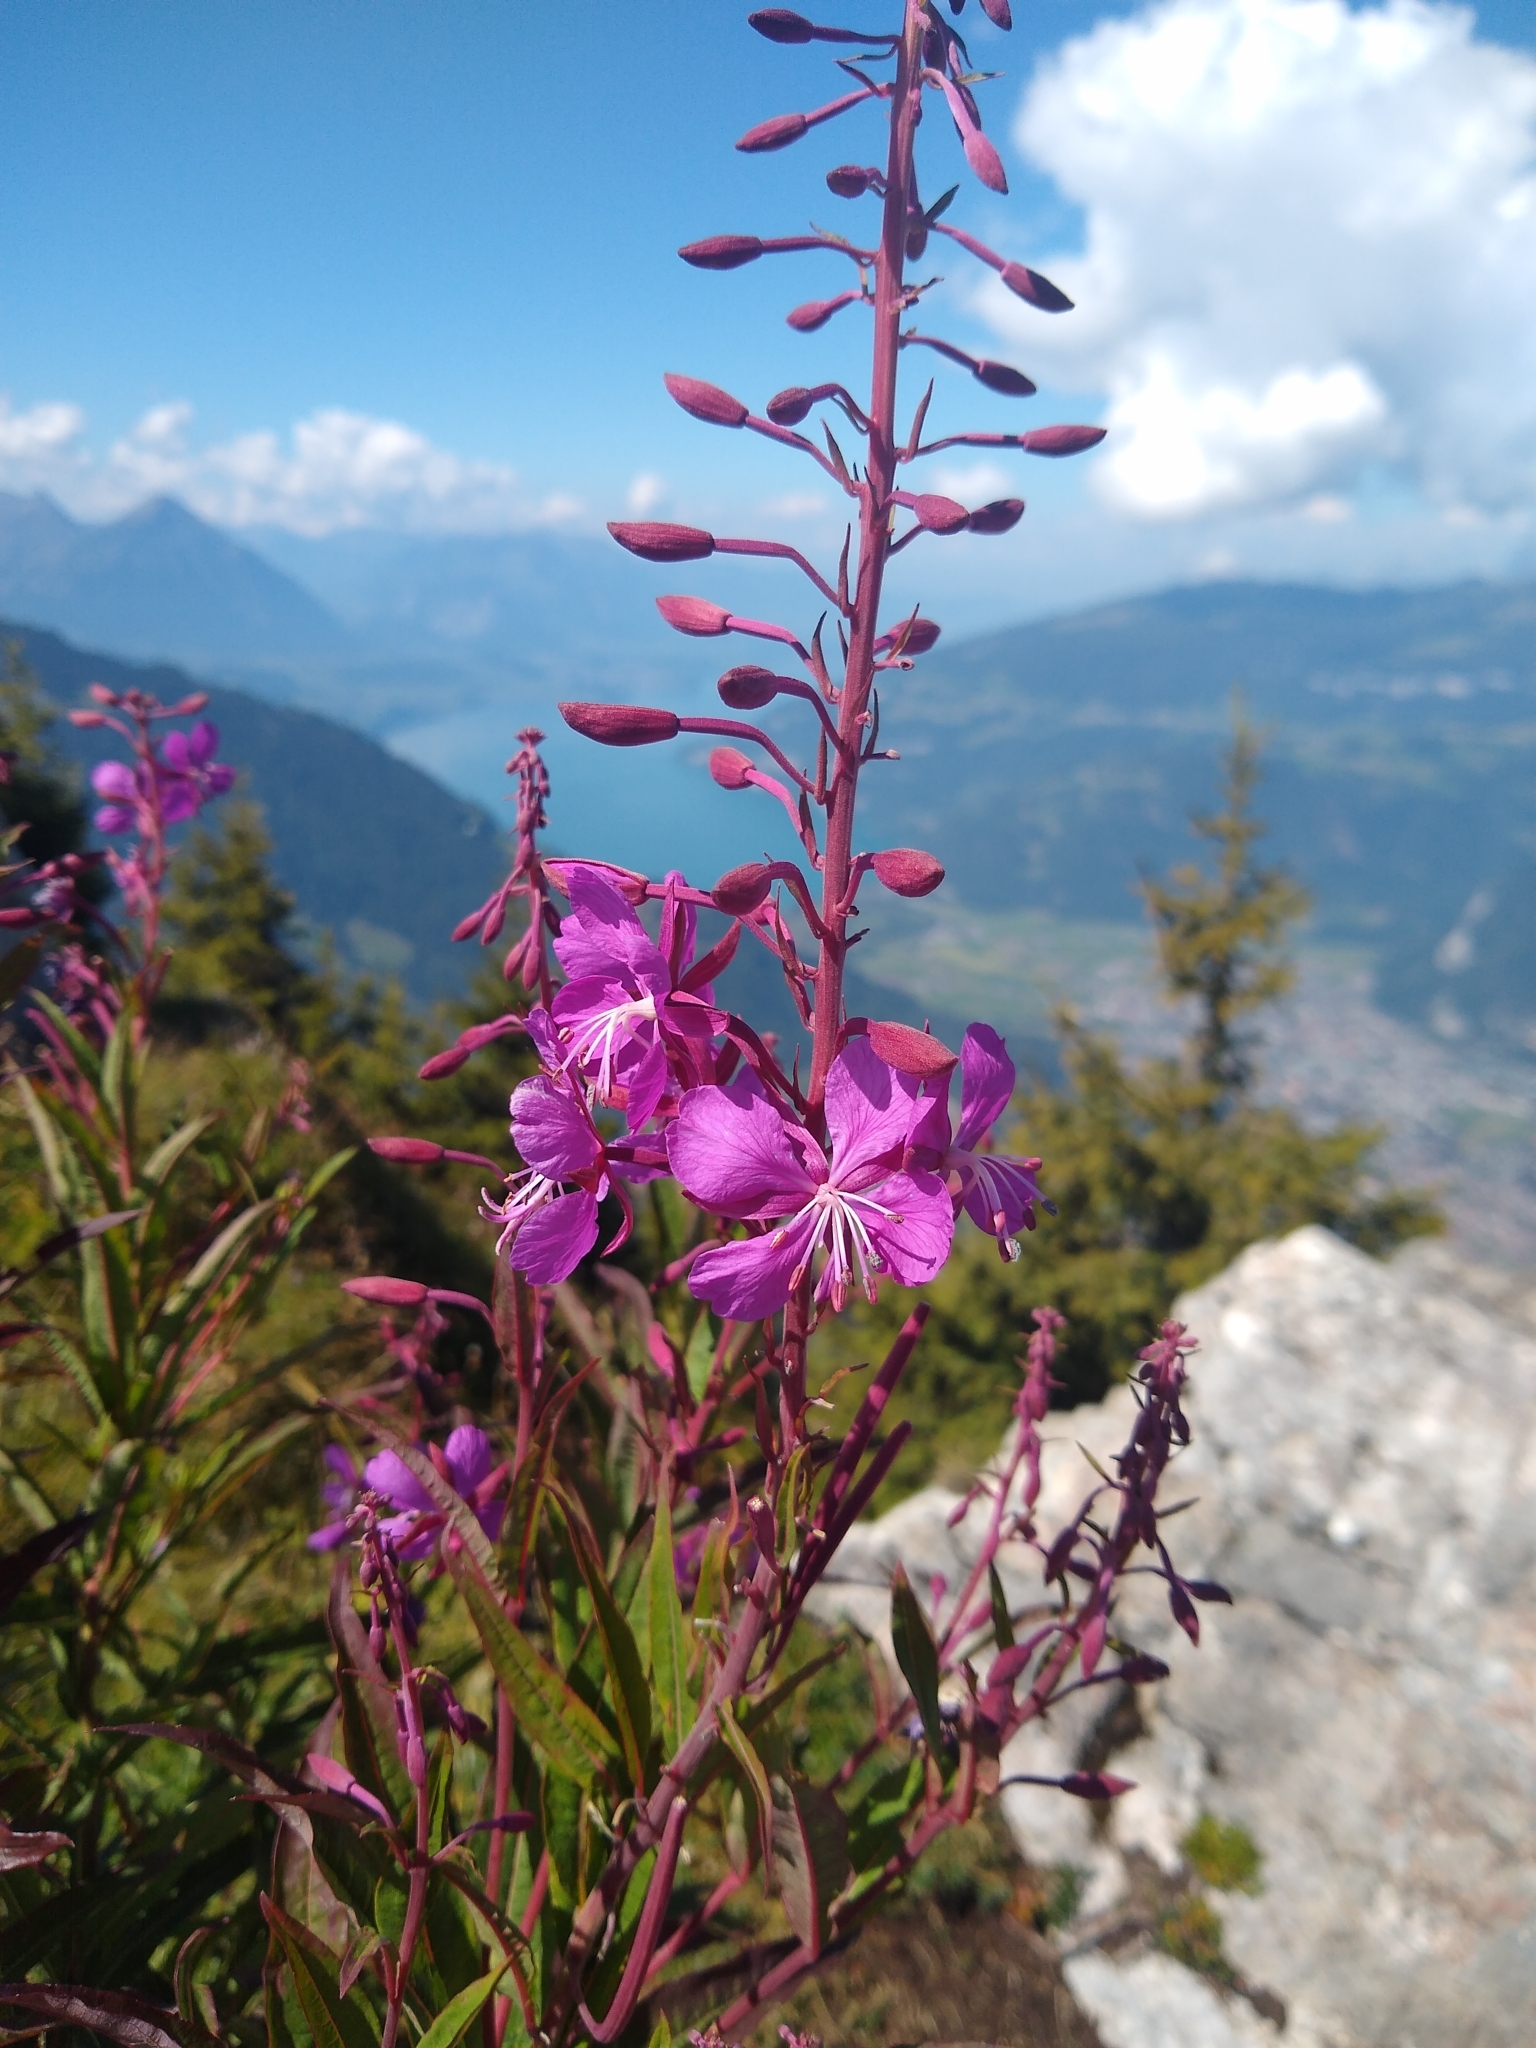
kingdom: Plantae
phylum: Tracheophyta
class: Magnoliopsida
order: Myrtales
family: Onagraceae
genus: Chamaenerion
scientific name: Chamaenerion angustifolium
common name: Fireweed
